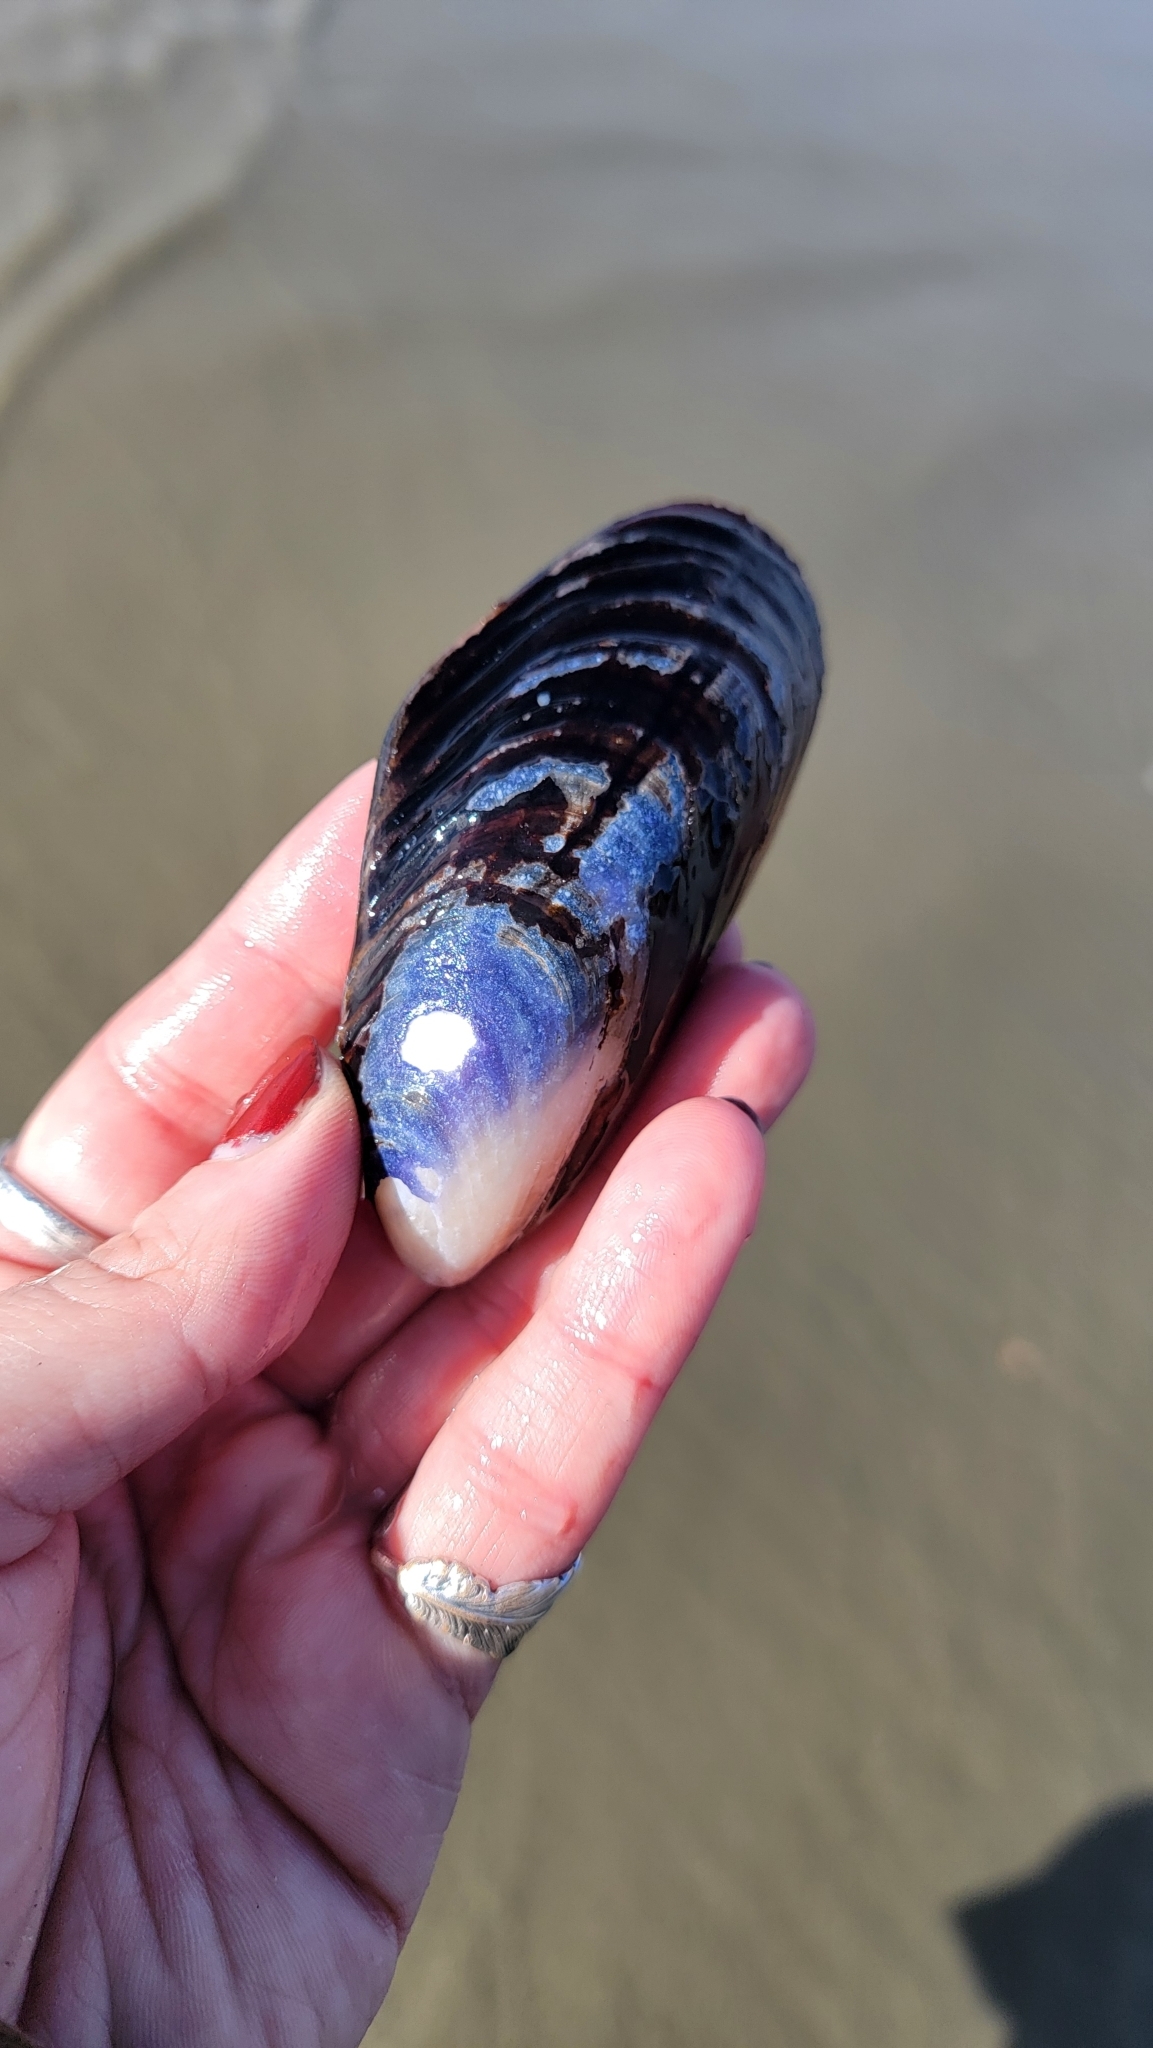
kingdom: Animalia
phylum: Mollusca
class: Bivalvia
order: Mytilida
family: Mytilidae
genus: Mytilus
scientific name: Mytilus californianus
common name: California mussel
